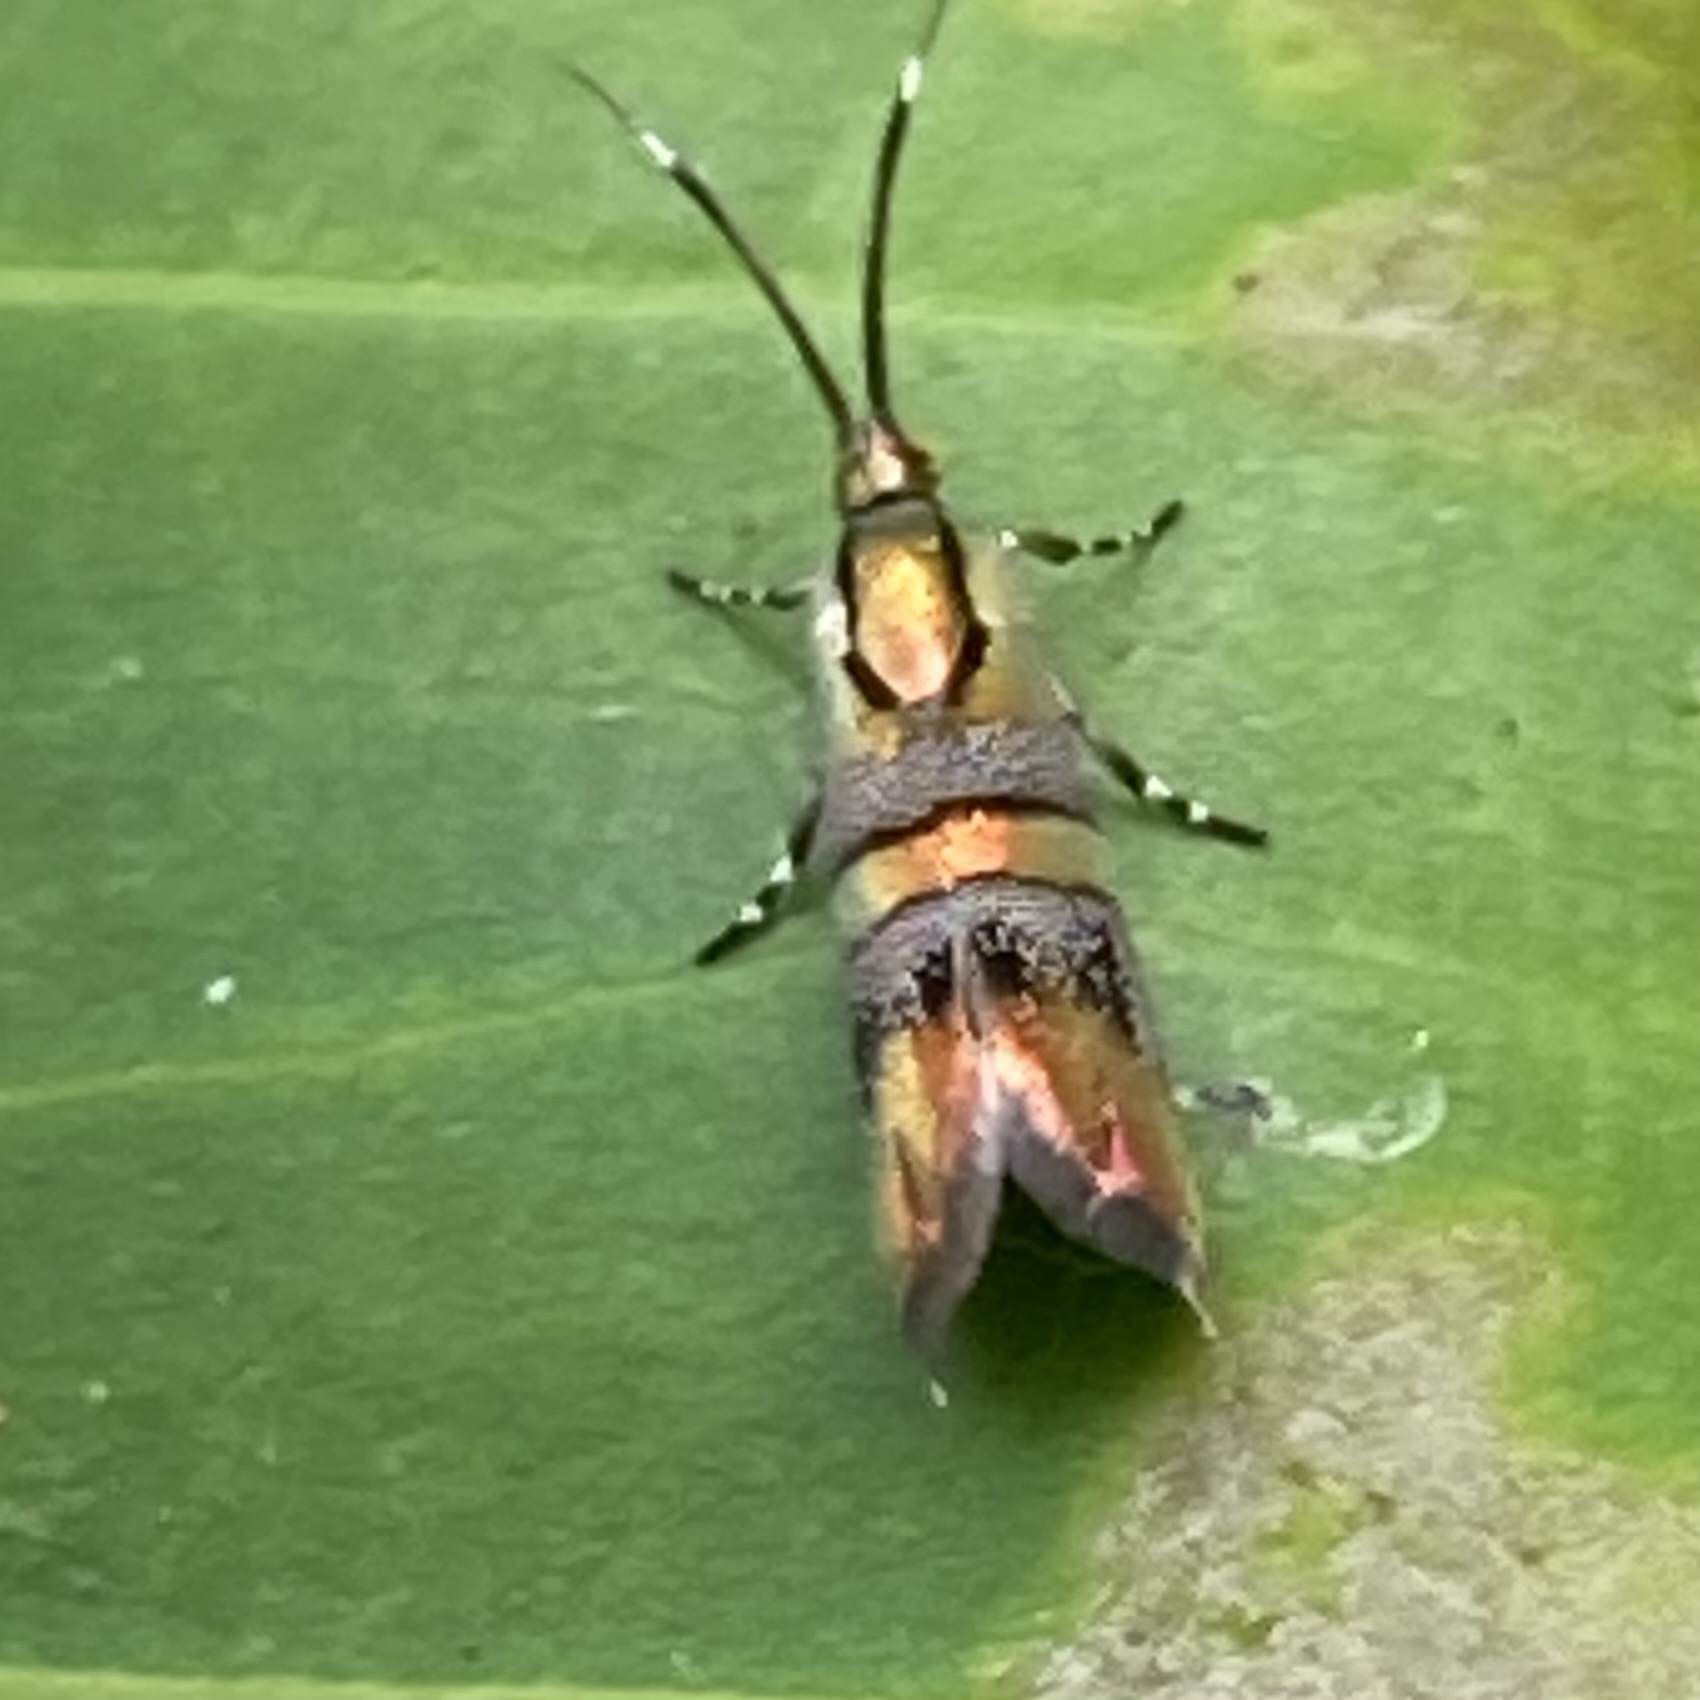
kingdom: Animalia
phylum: Arthropoda
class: Insecta
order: Lepidoptera
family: Choreutidae
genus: Tortyra
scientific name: Tortyra slossonia
